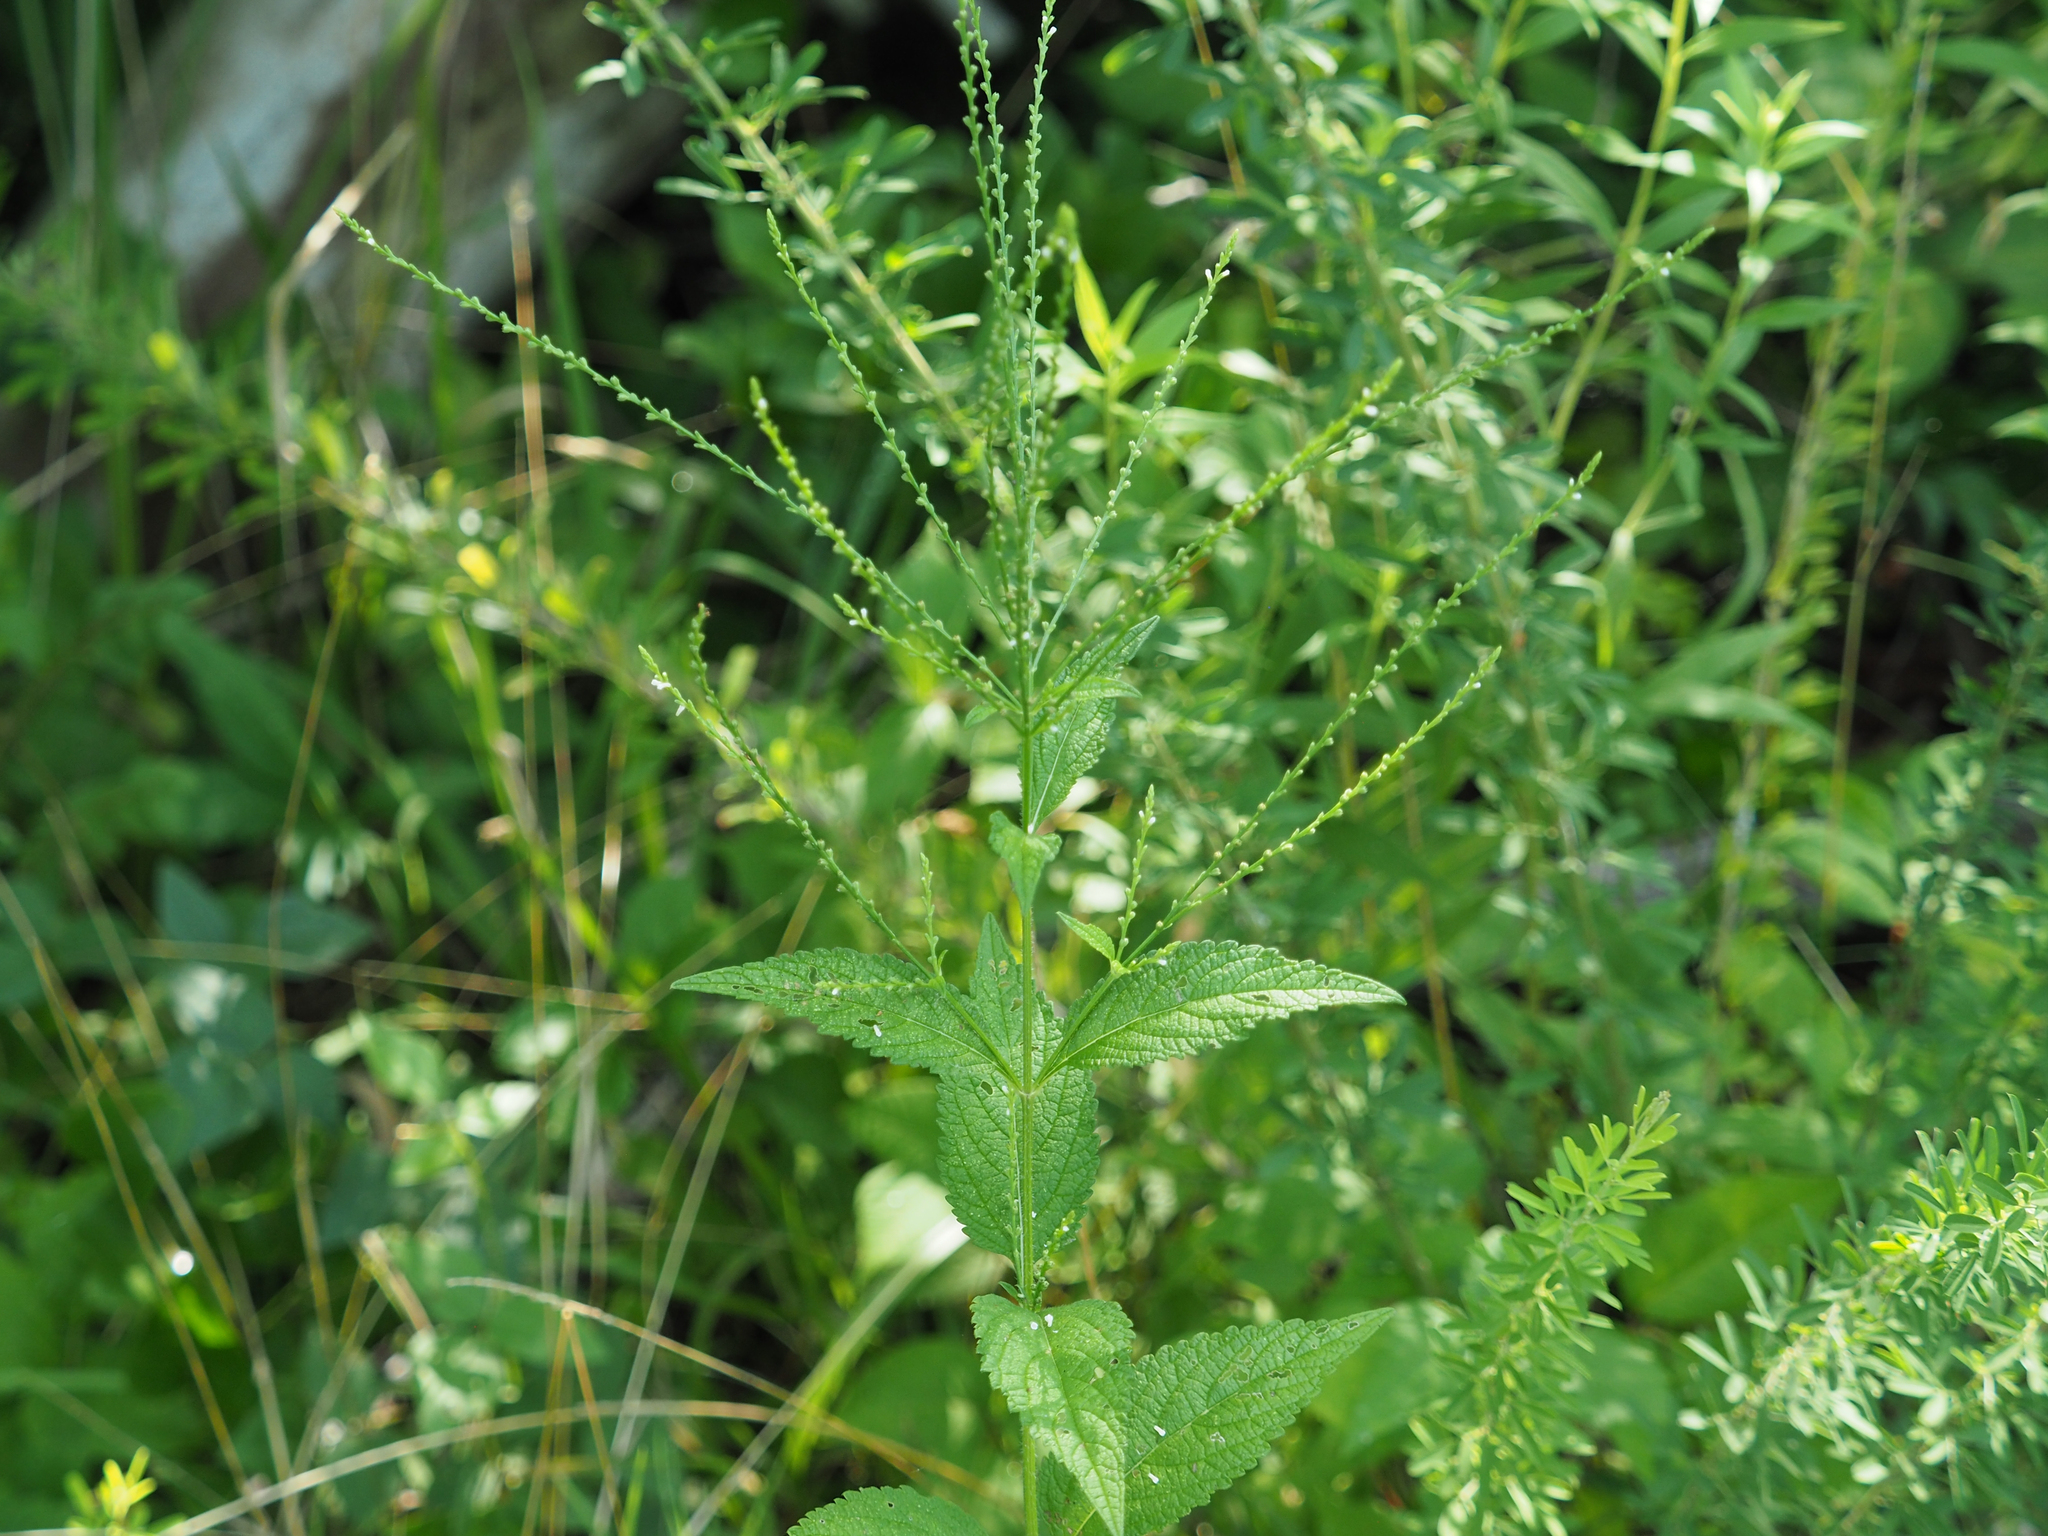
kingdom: Plantae
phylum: Tracheophyta
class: Magnoliopsida
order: Lamiales
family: Verbenaceae
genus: Verbena
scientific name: Verbena urticifolia
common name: Nettle-leaved vervain
